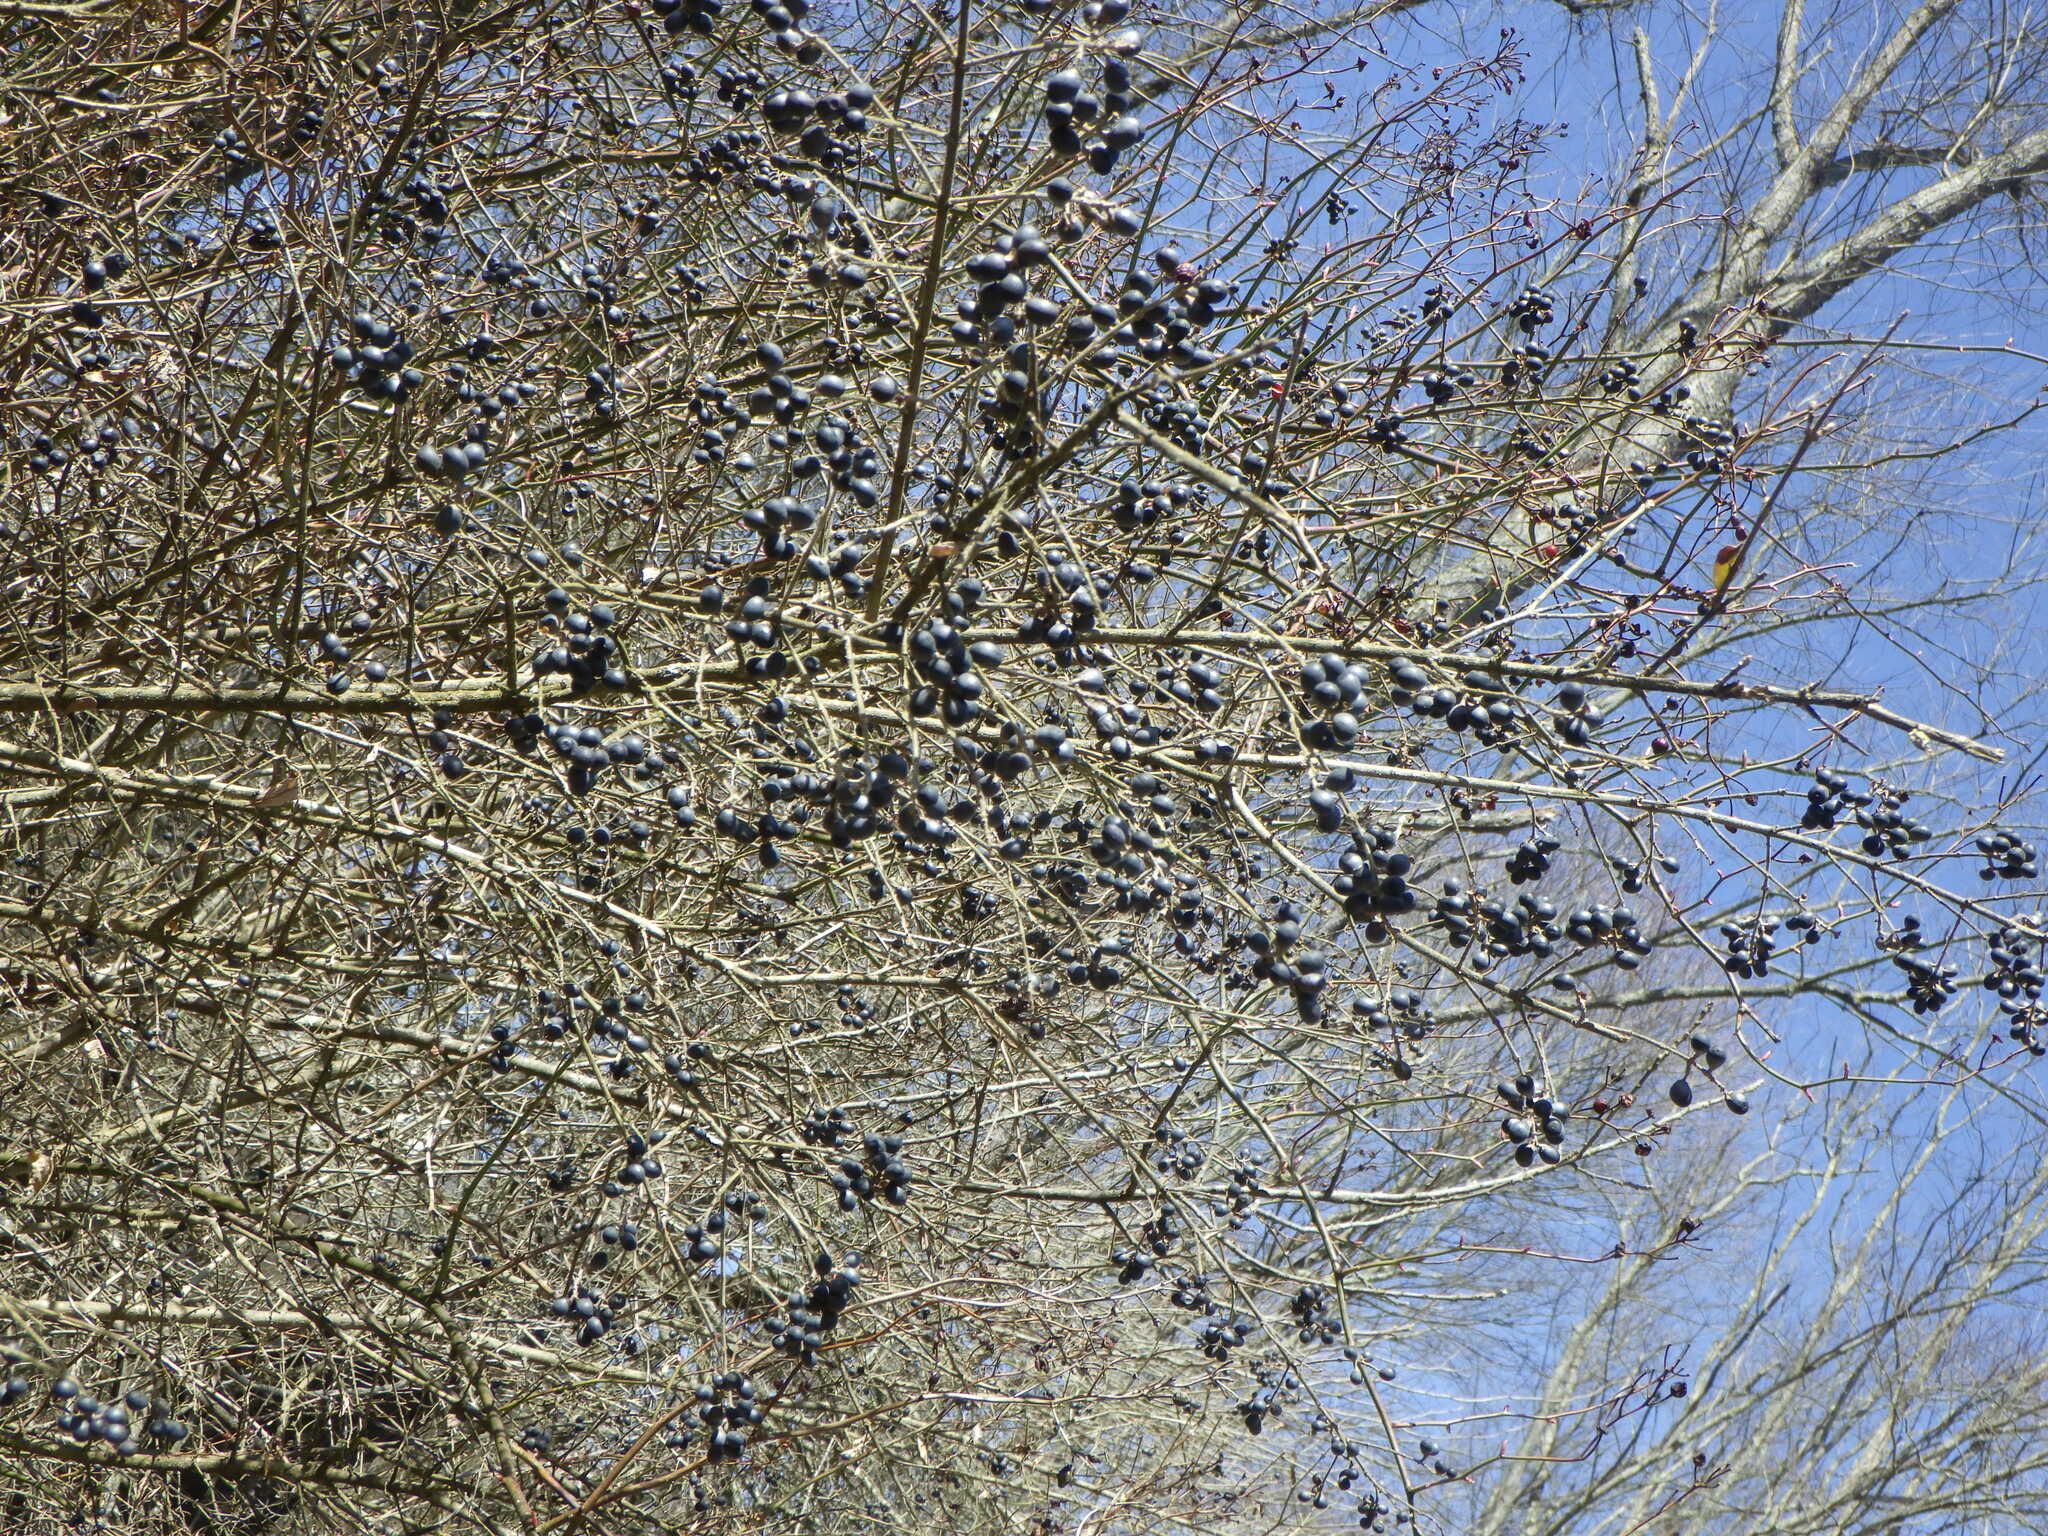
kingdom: Plantae
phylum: Tracheophyta
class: Magnoliopsida
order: Lamiales
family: Oleaceae
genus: Ligustrum
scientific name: Ligustrum obtusifolium
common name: Border privet
